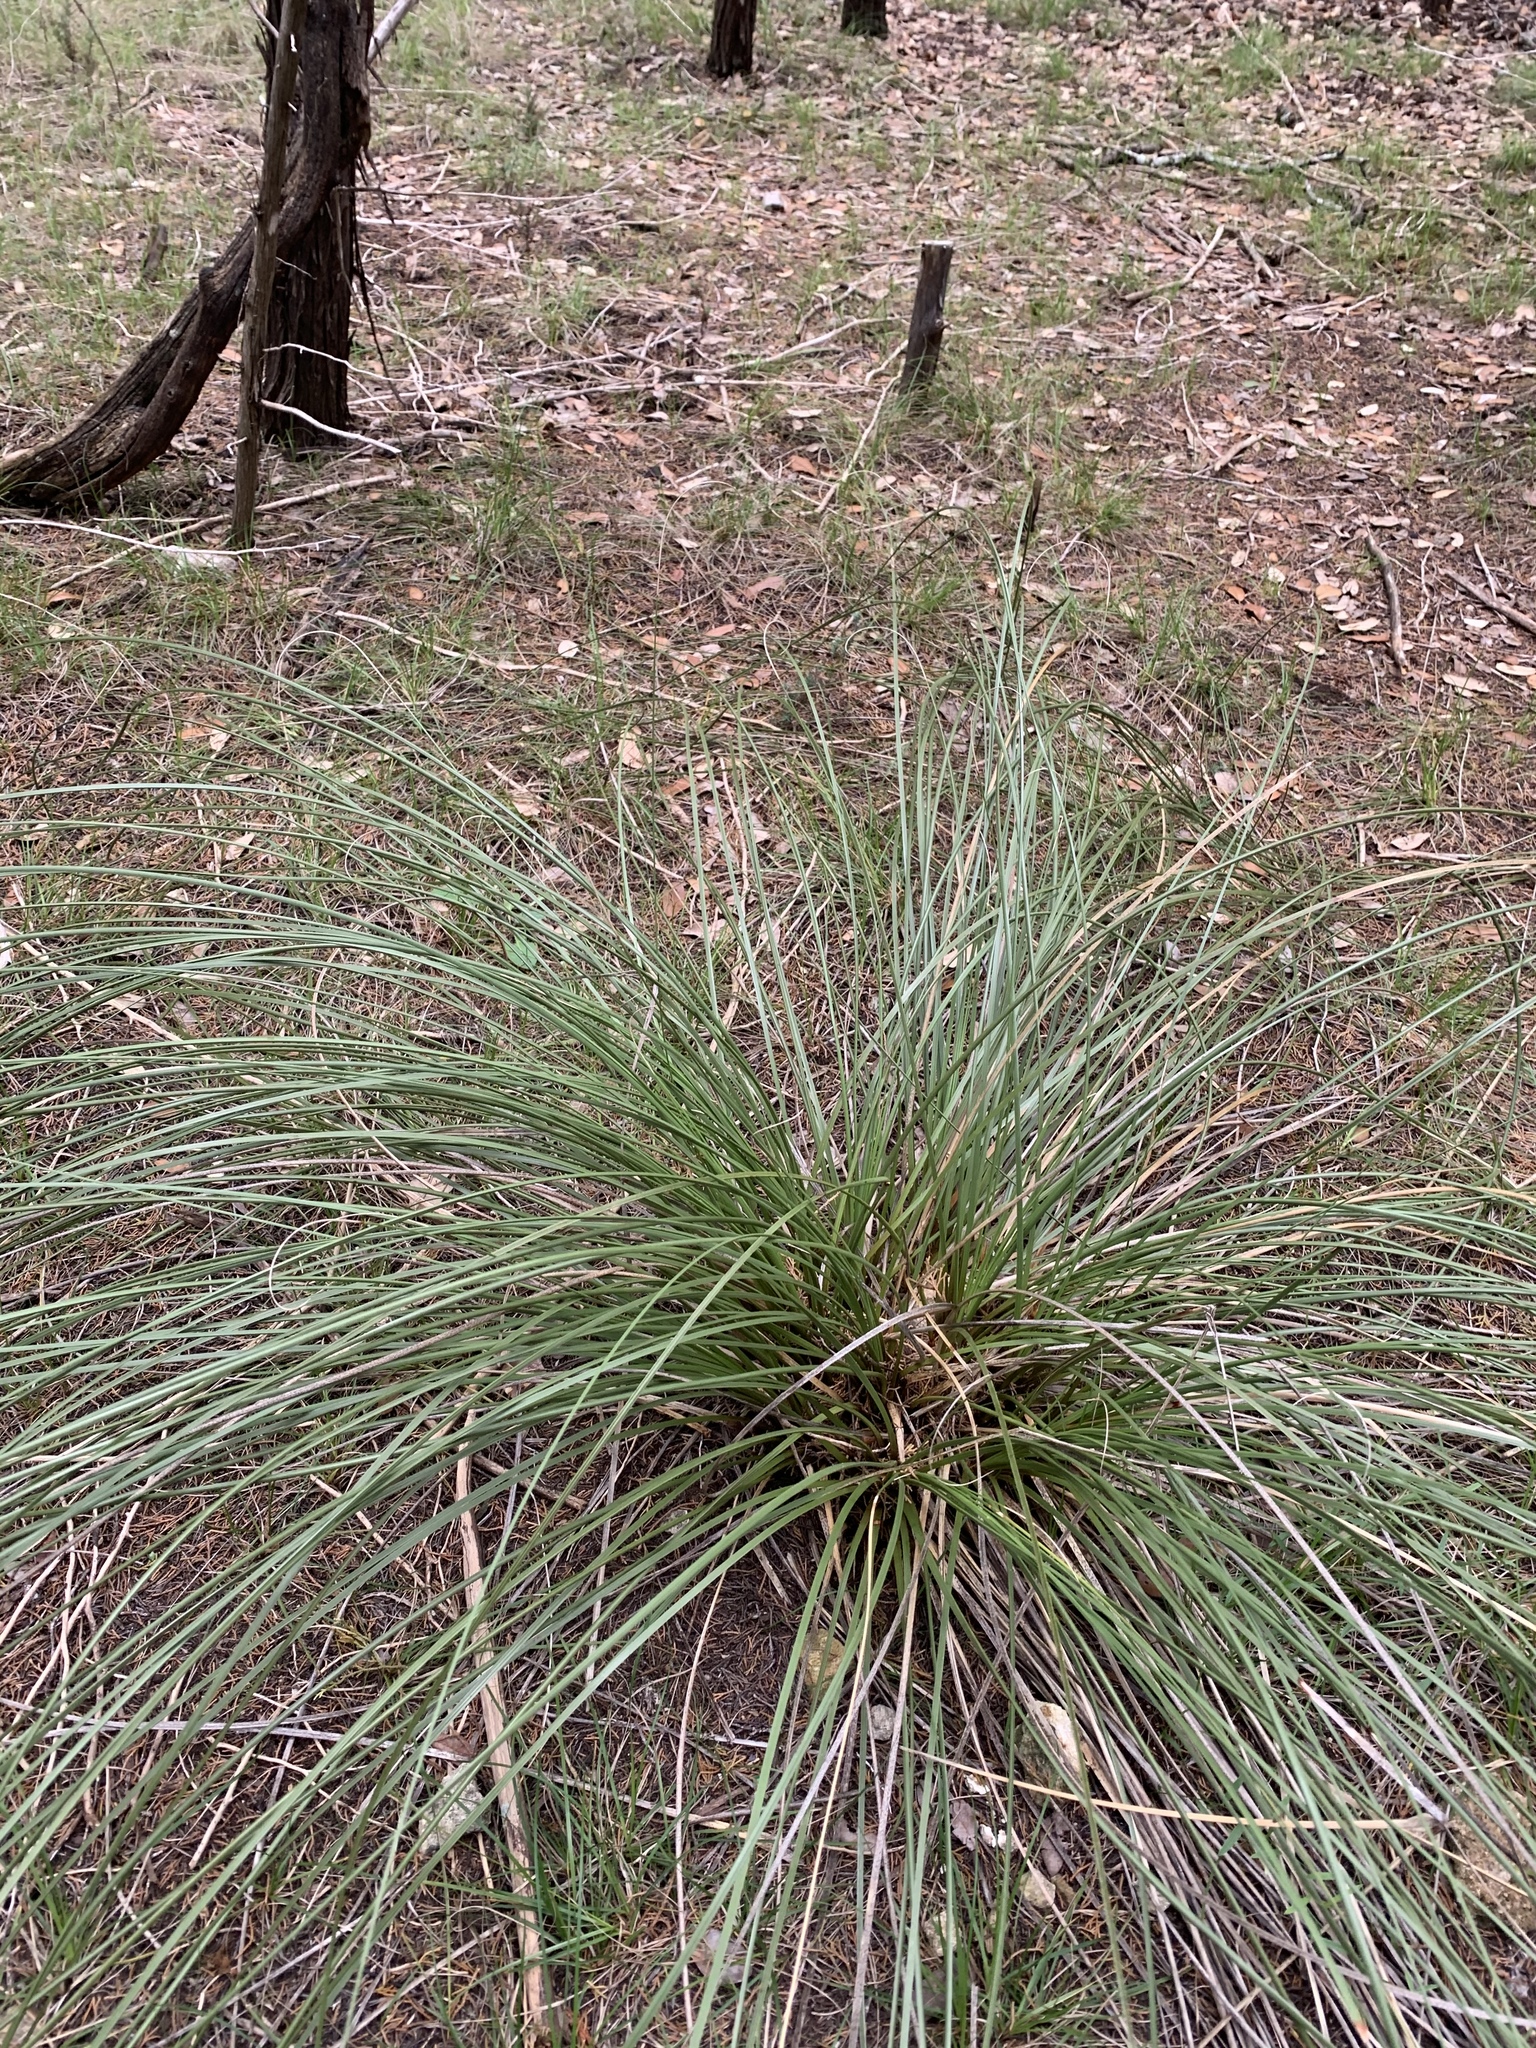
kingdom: Plantae
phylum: Tracheophyta
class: Liliopsida
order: Asparagales
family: Asparagaceae
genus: Nolina
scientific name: Nolina texana
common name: Texas sacahuiste
